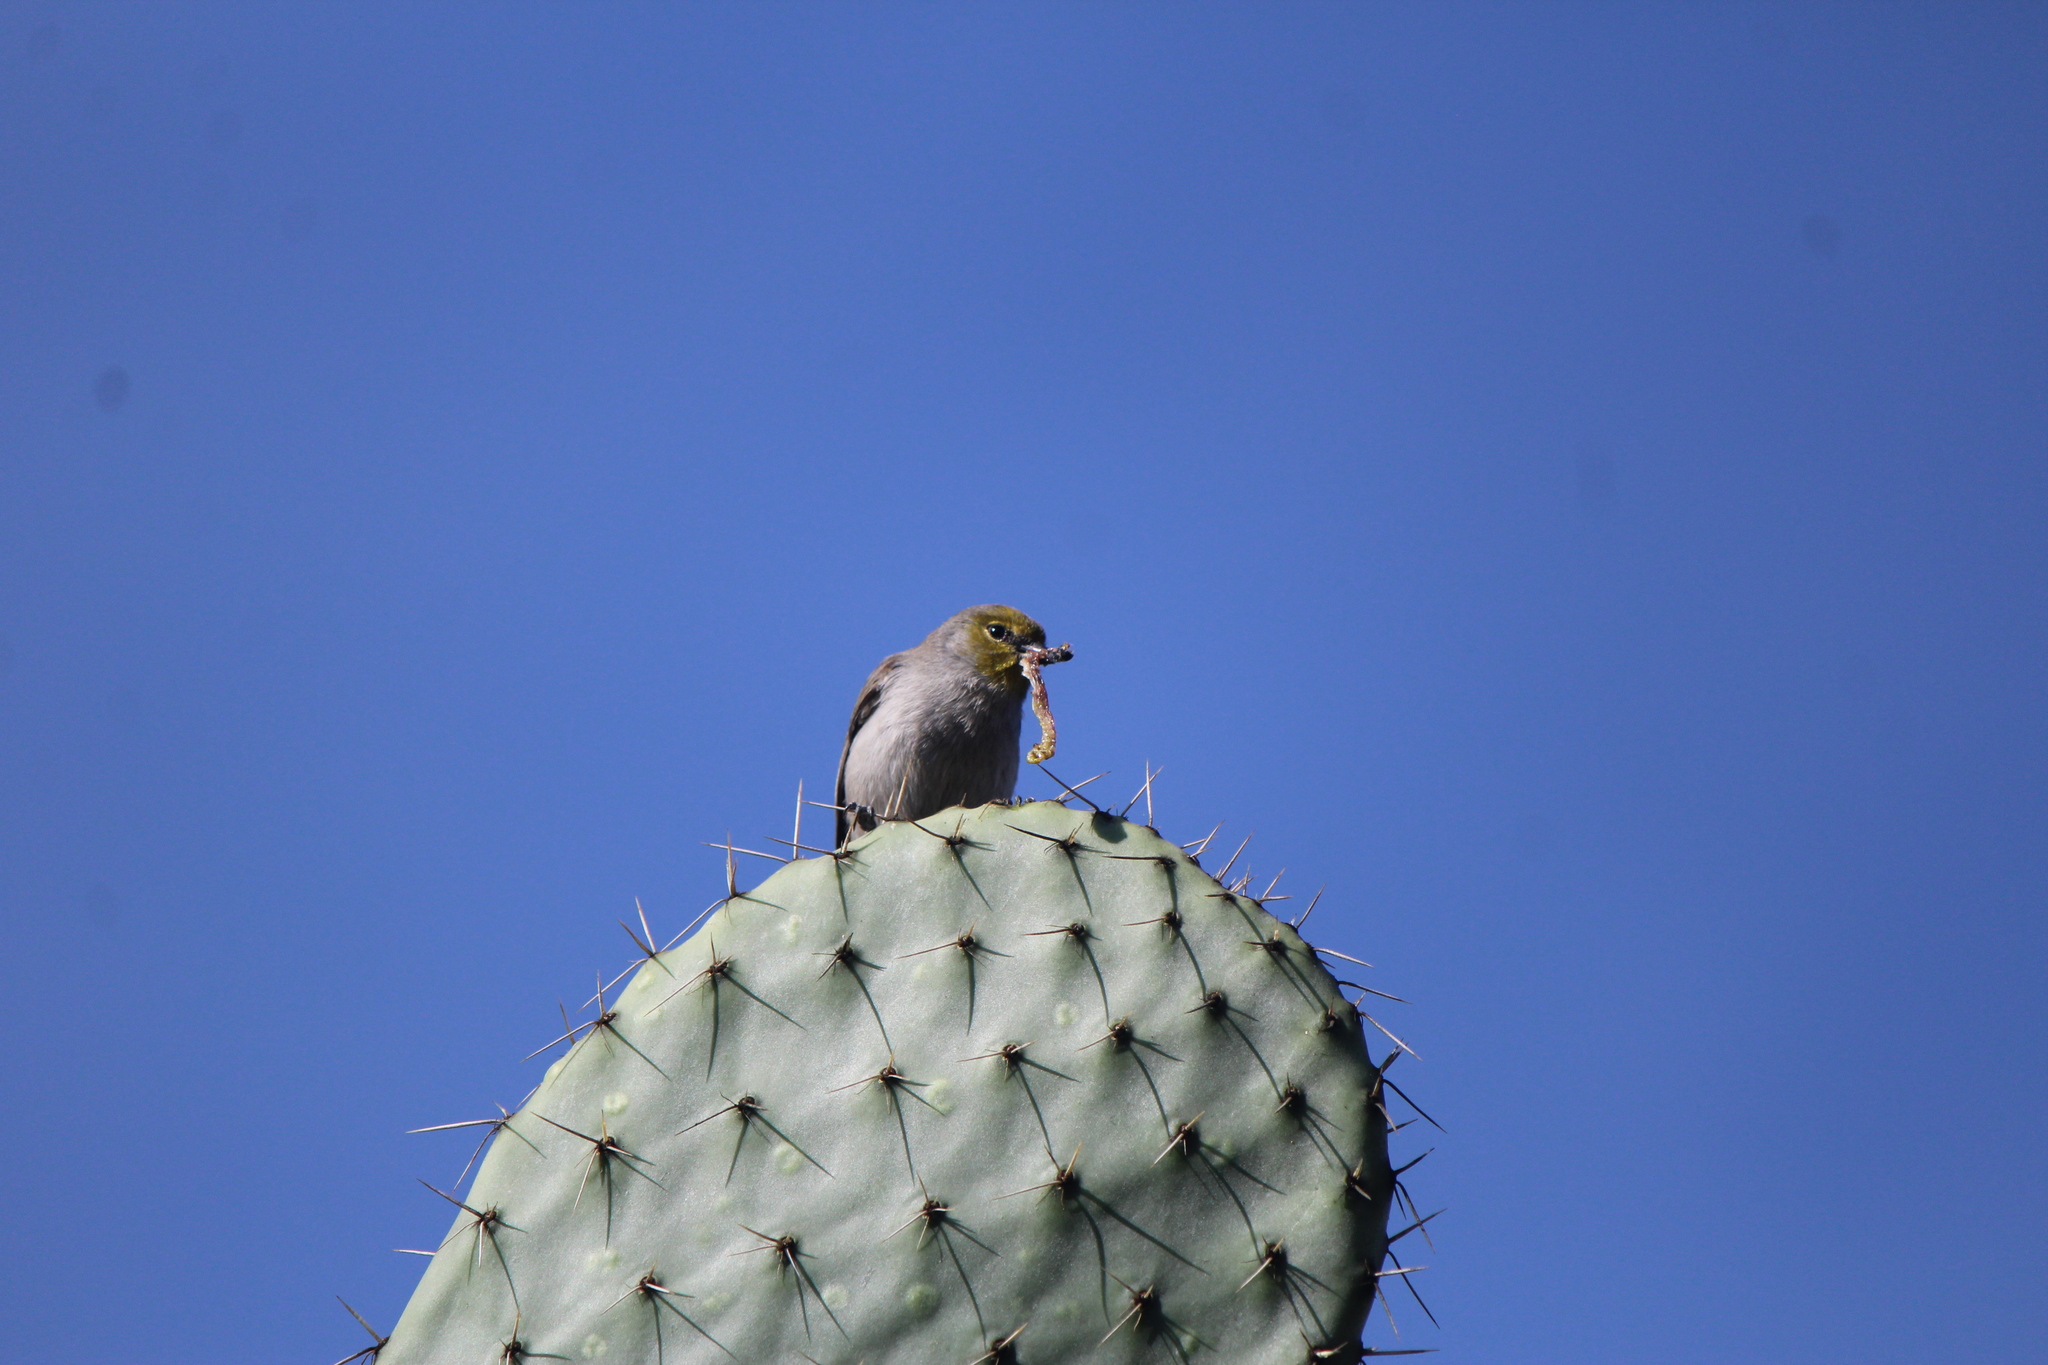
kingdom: Animalia
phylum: Chordata
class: Aves
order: Passeriformes
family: Remizidae
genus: Auriparus
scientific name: Auriparus flaviceps
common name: Verdin
